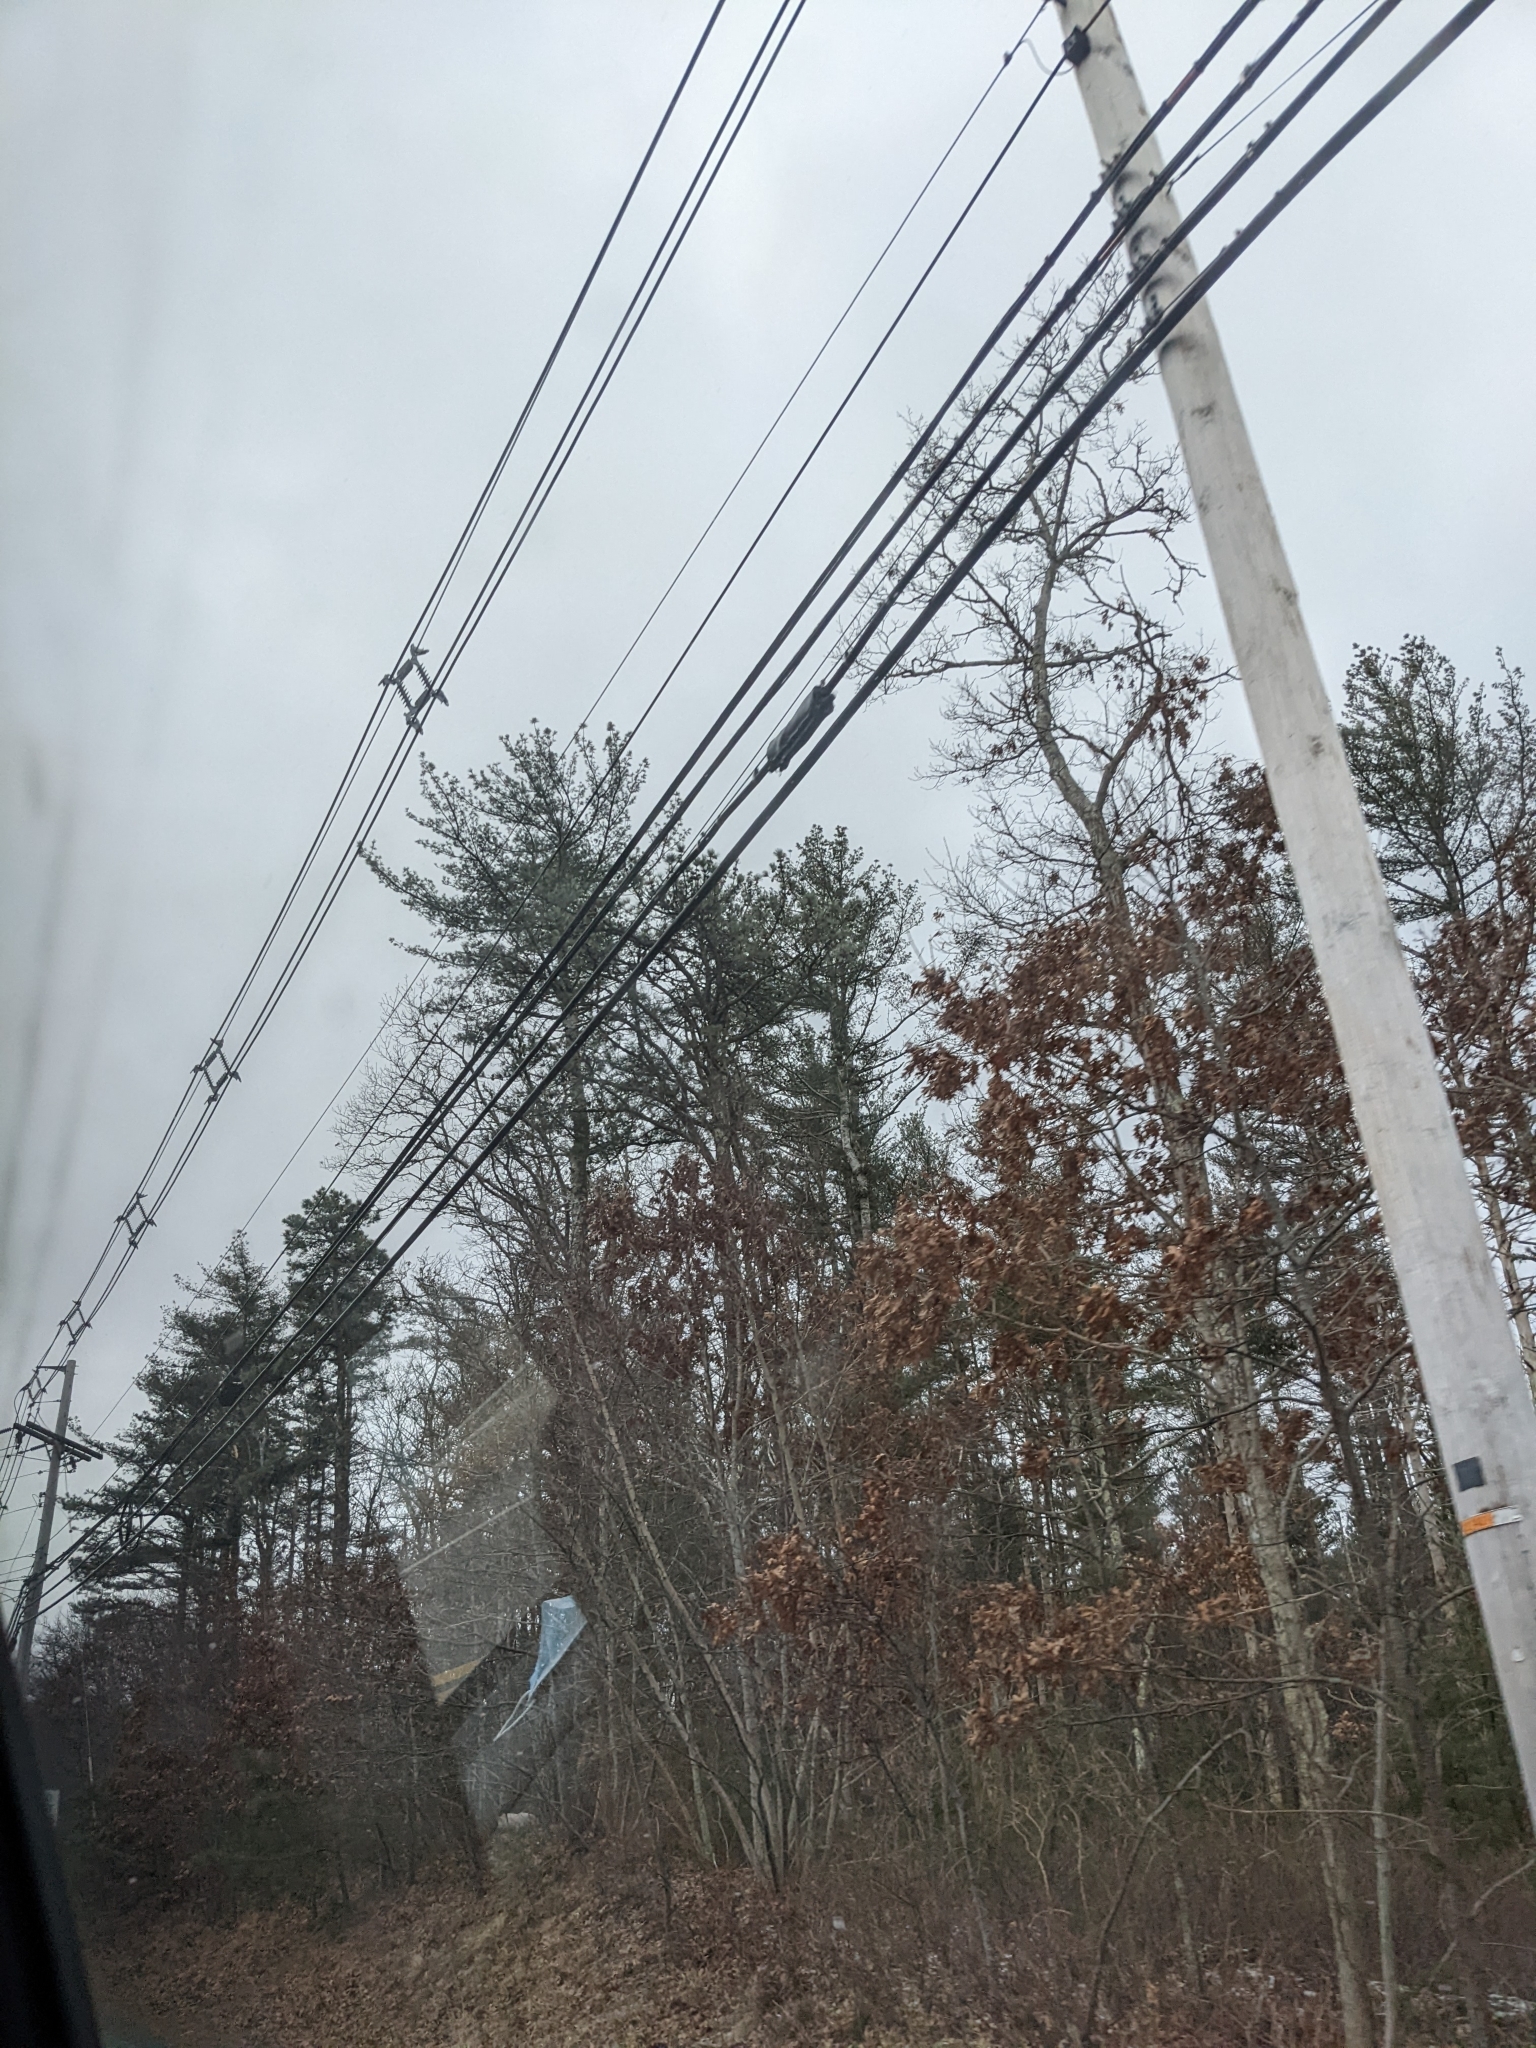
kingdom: Plantae
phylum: Tracheophyta
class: Pinopsida
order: Pinales
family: Pinaceae
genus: Pinus
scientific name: Pinus strobus
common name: Weymouth pine
